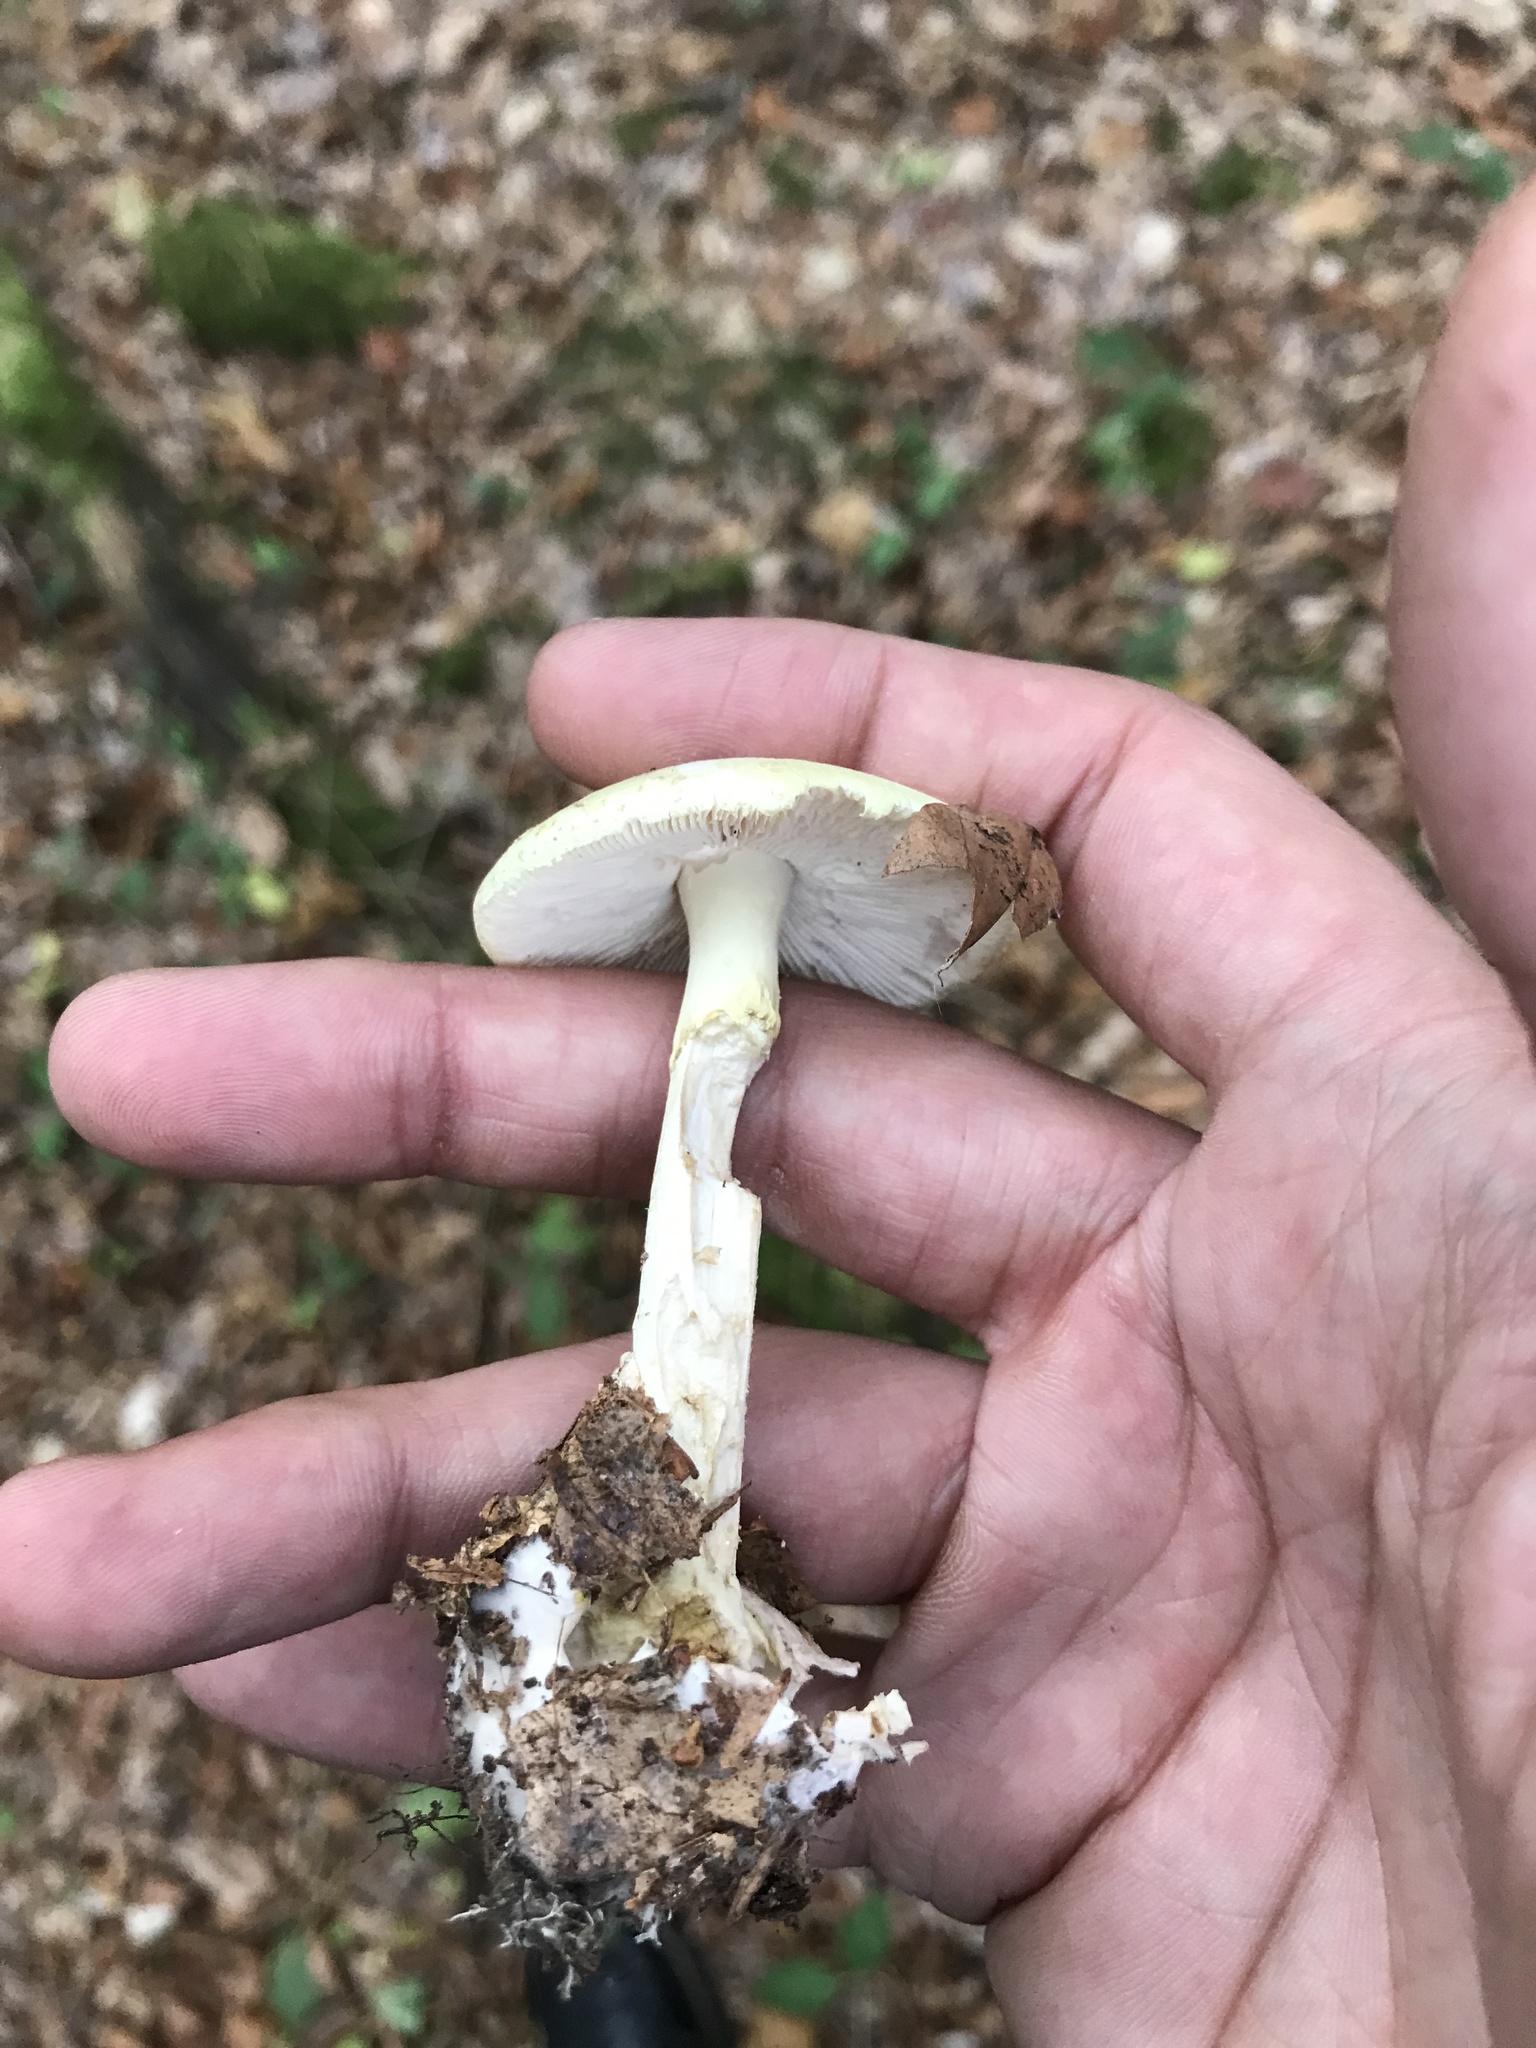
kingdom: Fungi
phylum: Basidiomycota
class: Agaricomycetes
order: Agaricales
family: Amanitaceae
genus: Amanita
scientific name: Amanita citrina
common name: False death-cap
